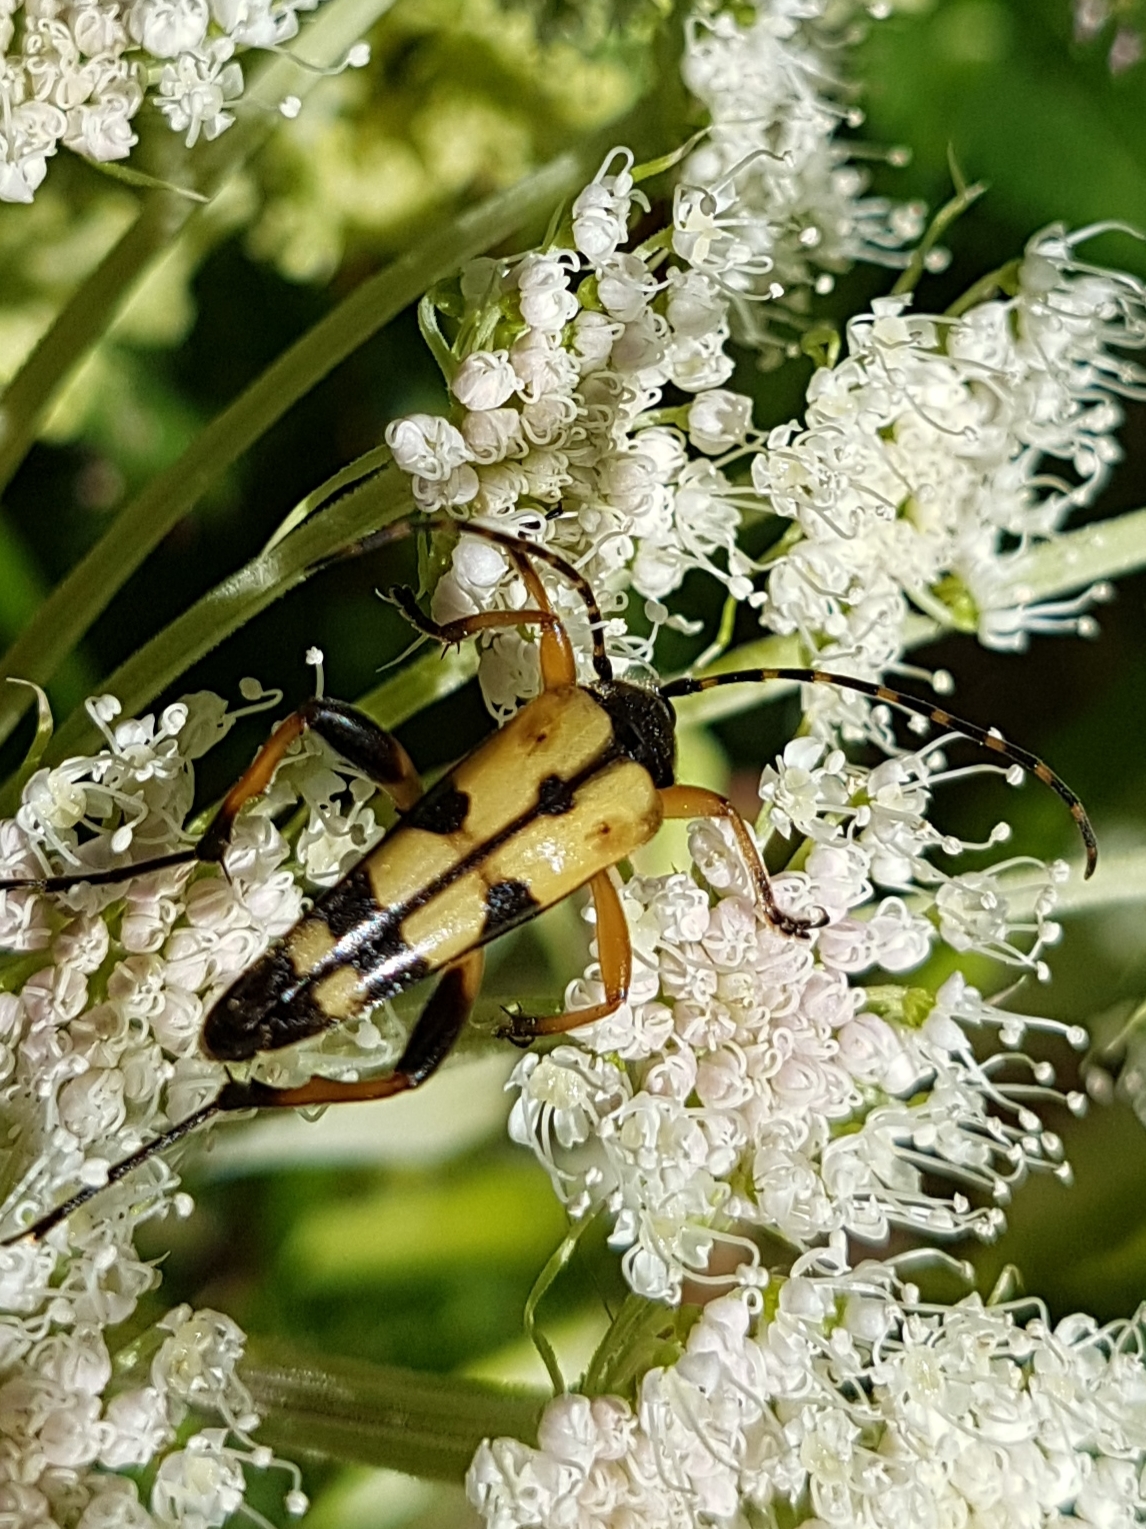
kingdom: Animalia
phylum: Arthropoda
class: Insecta
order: Coleoptera
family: Cerambycidae
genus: Rutpela
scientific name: Rutpela maculata
